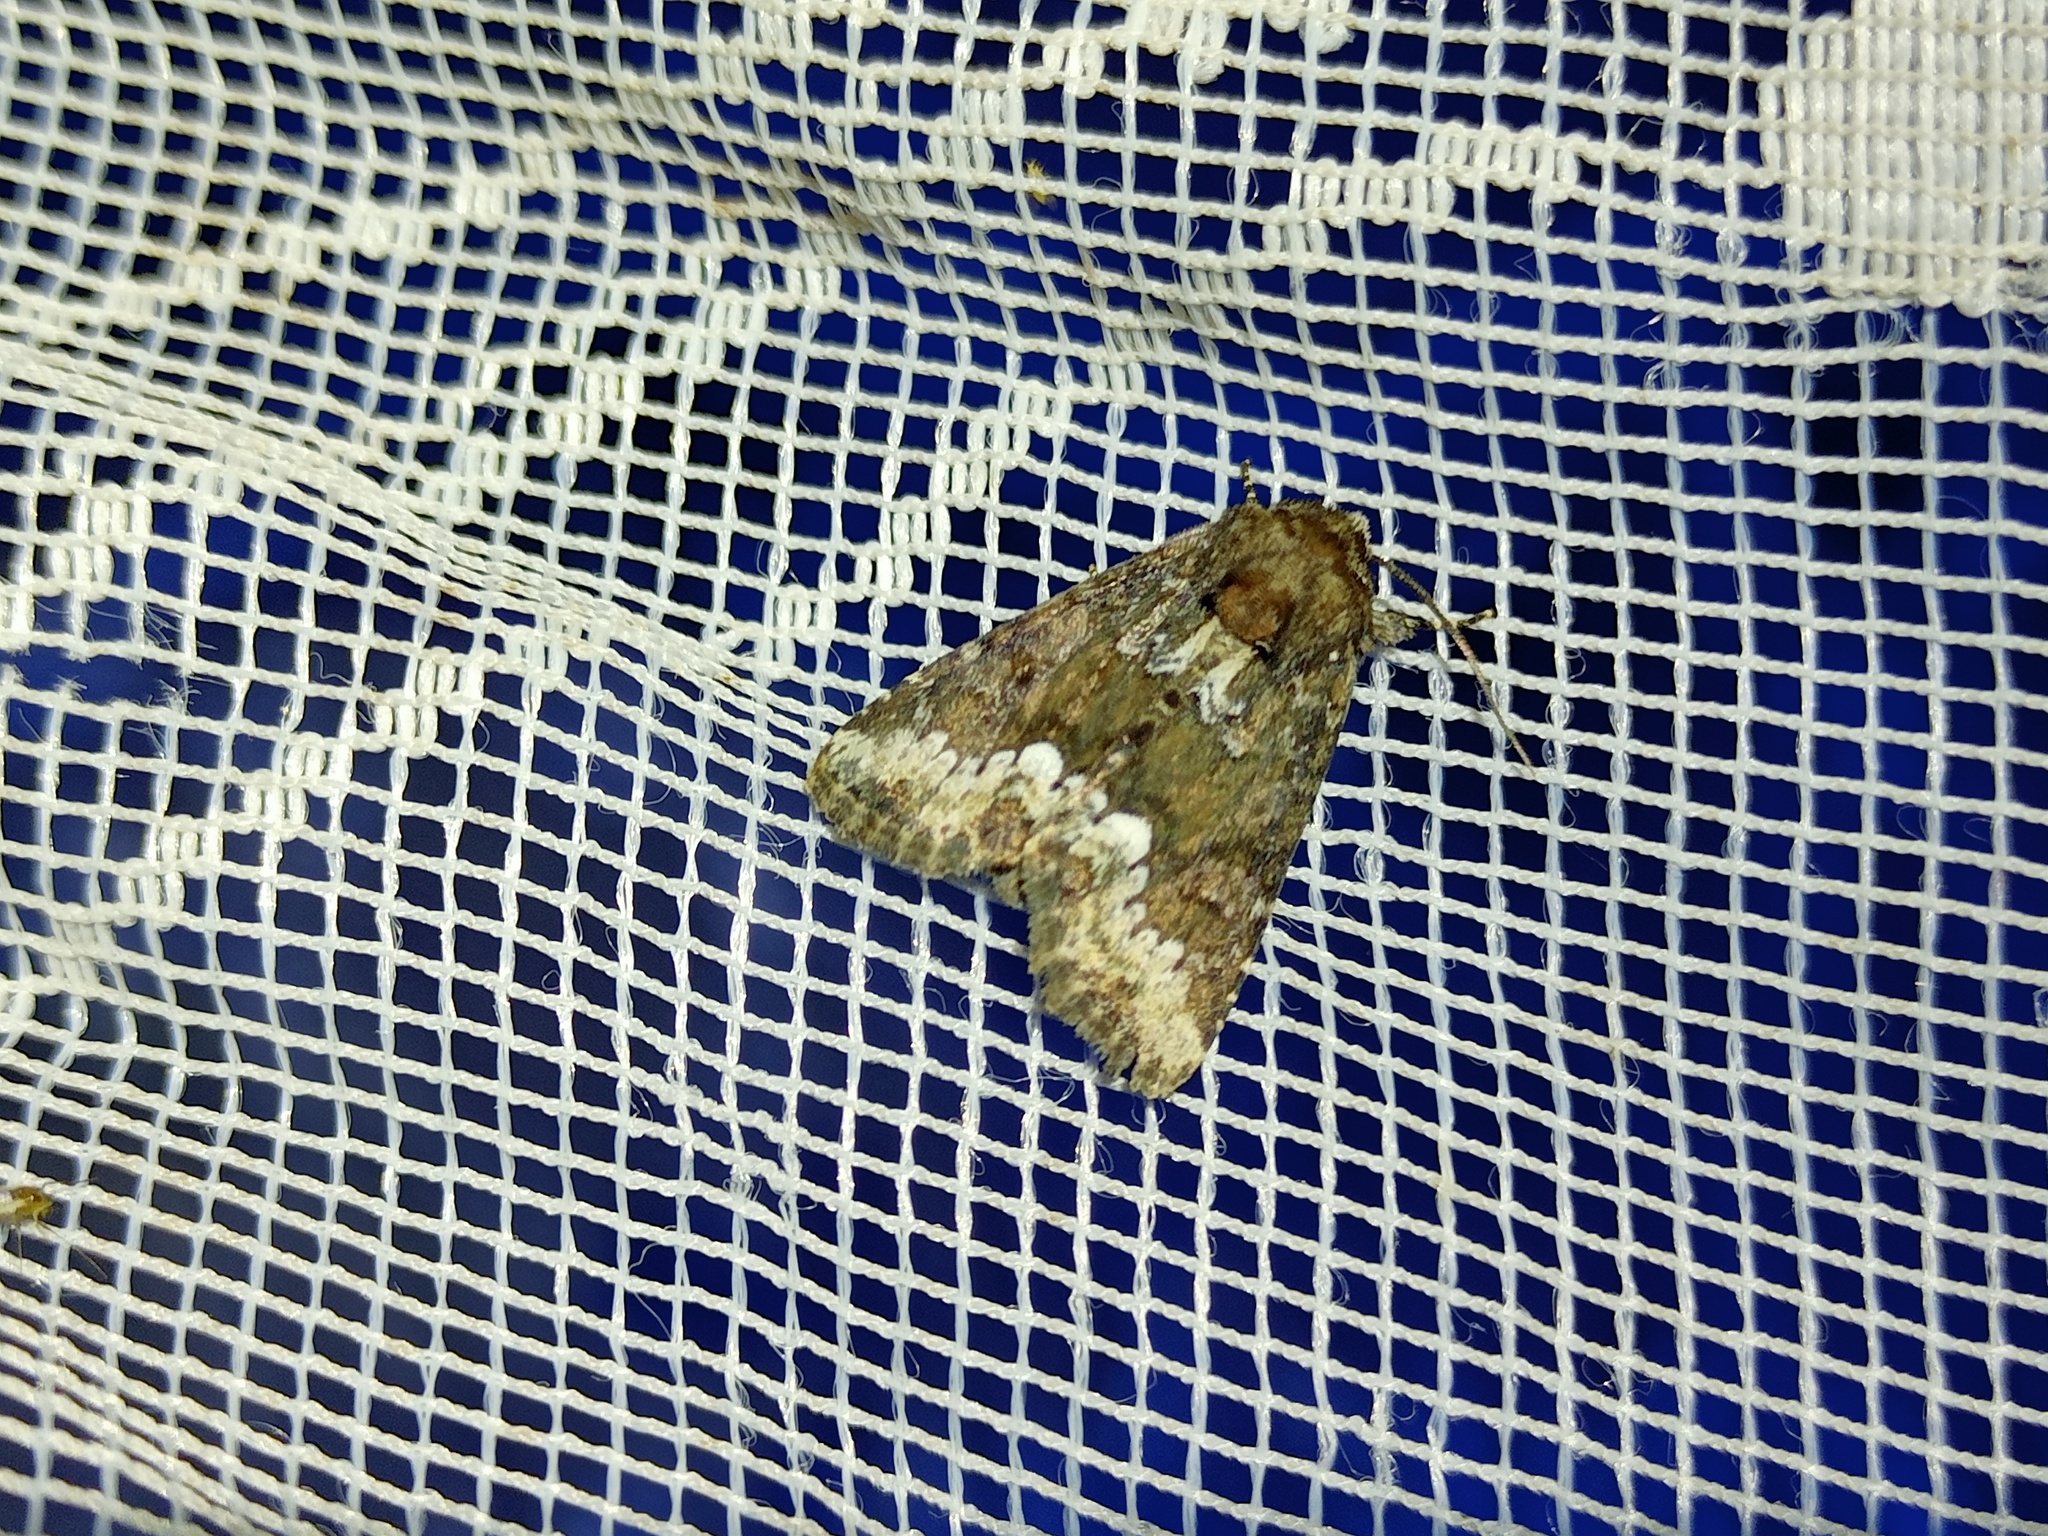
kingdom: Animalia
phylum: Arthropoda
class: Insecta
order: Lepidoptera
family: Noctuidae
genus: Oligia
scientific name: Oligia strigilis
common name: Marbled minor
